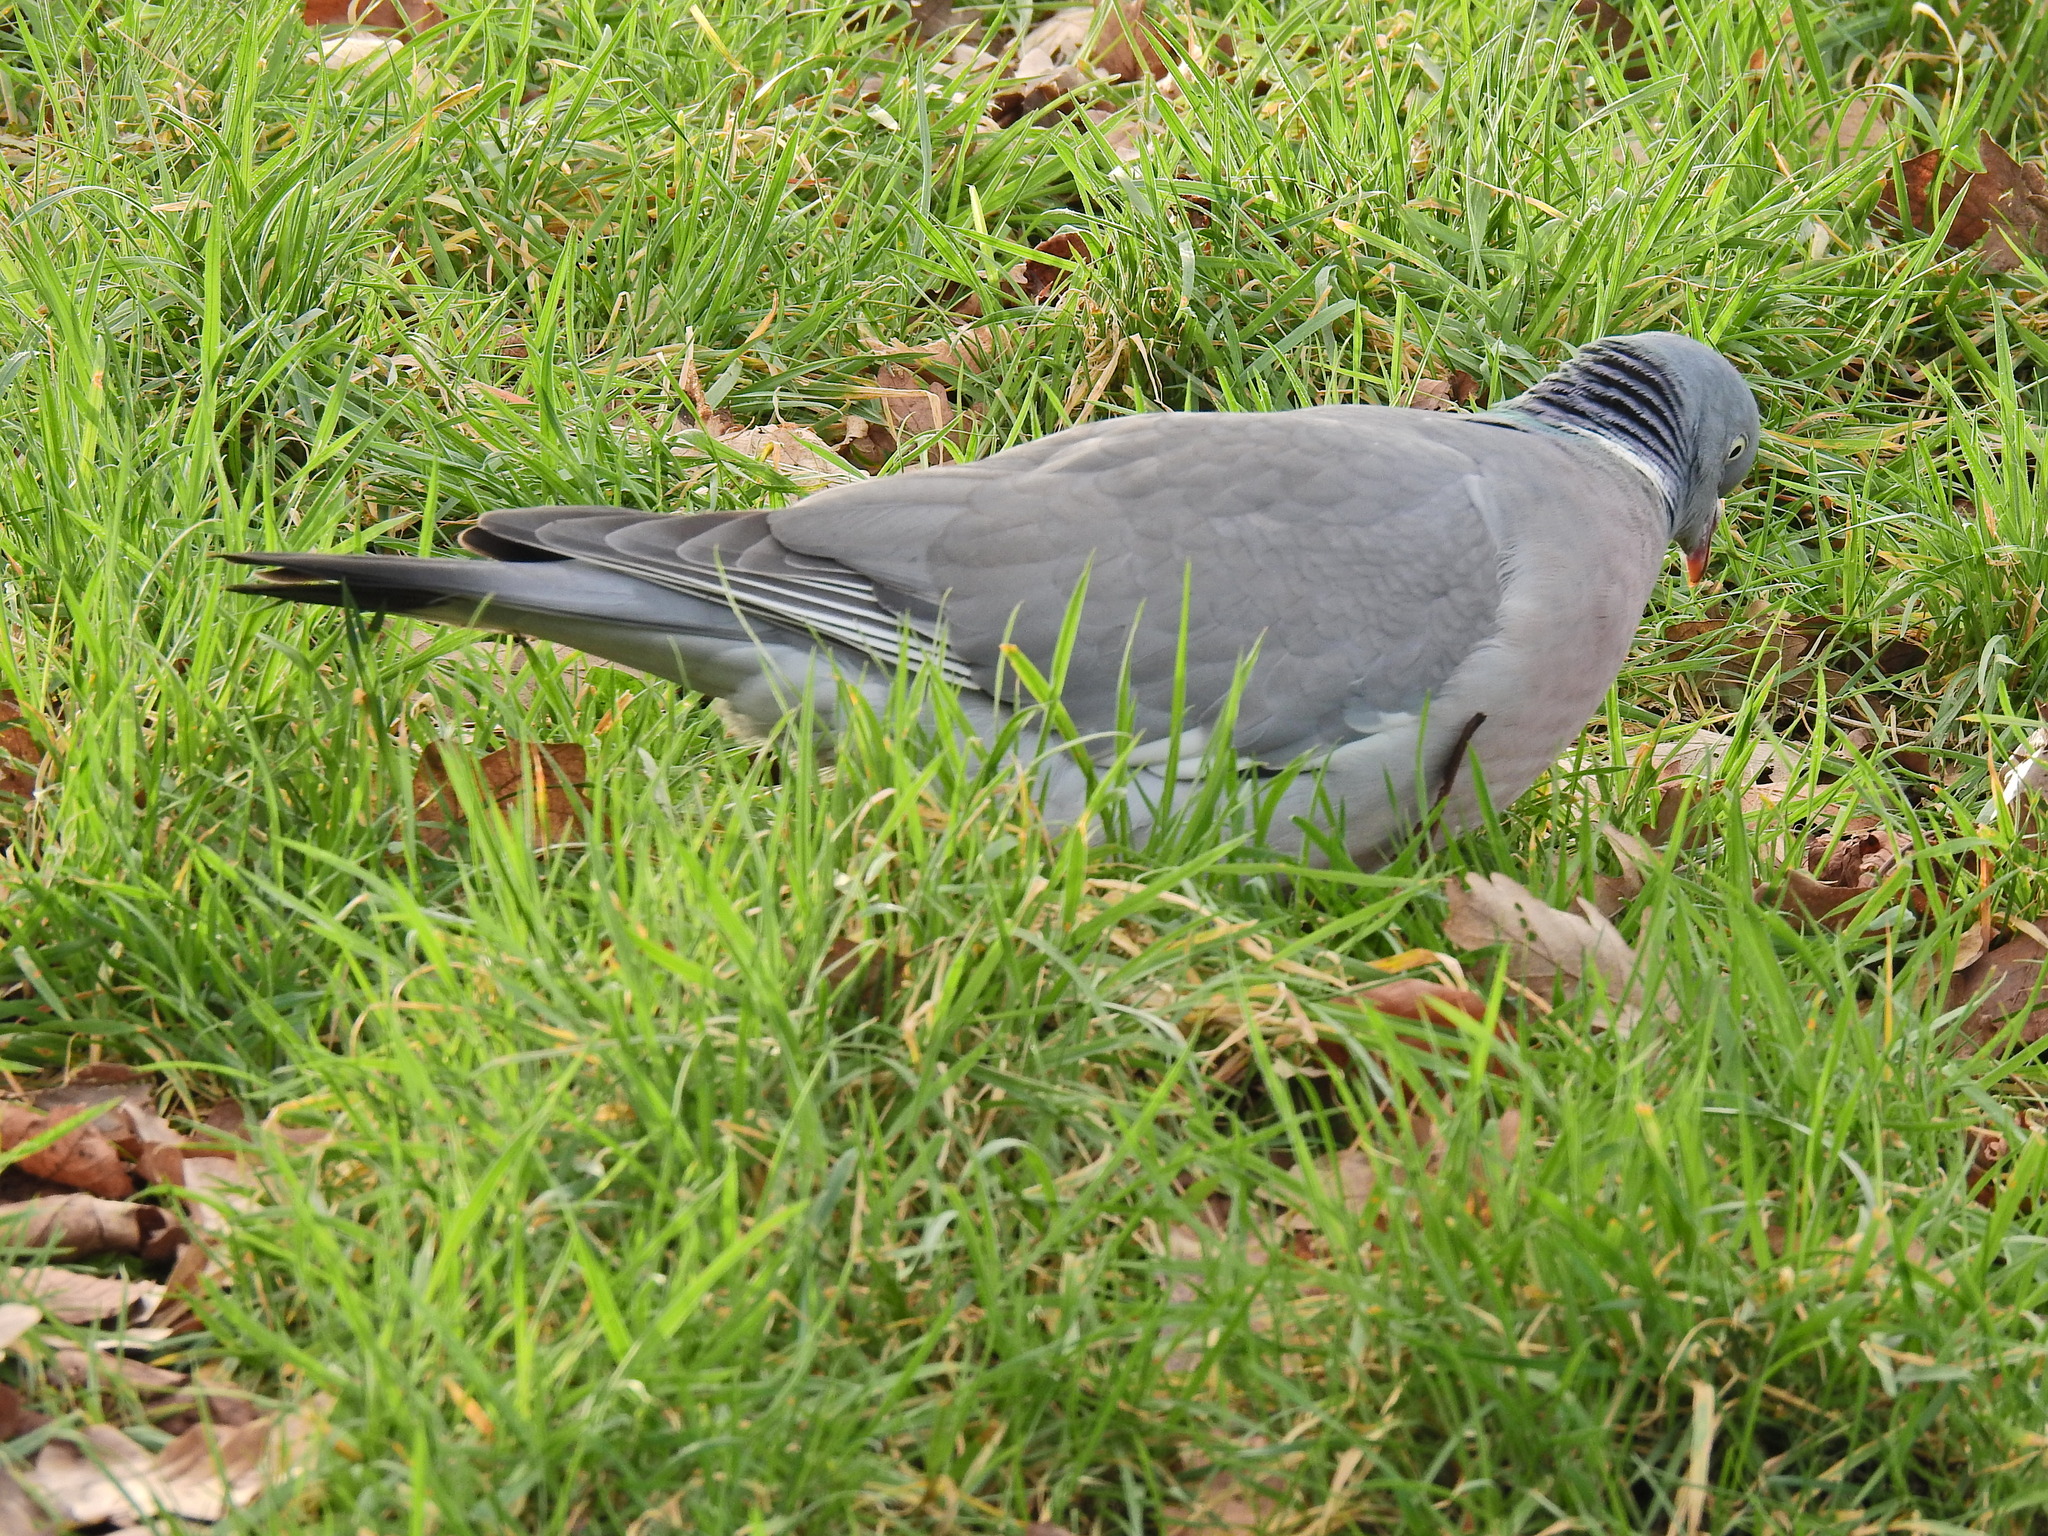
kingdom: Animalia
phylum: Chordata
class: Aves
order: Columbiformes
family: Columbidae
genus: Columba
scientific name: Columba palumbus
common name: Common wood pigeon
